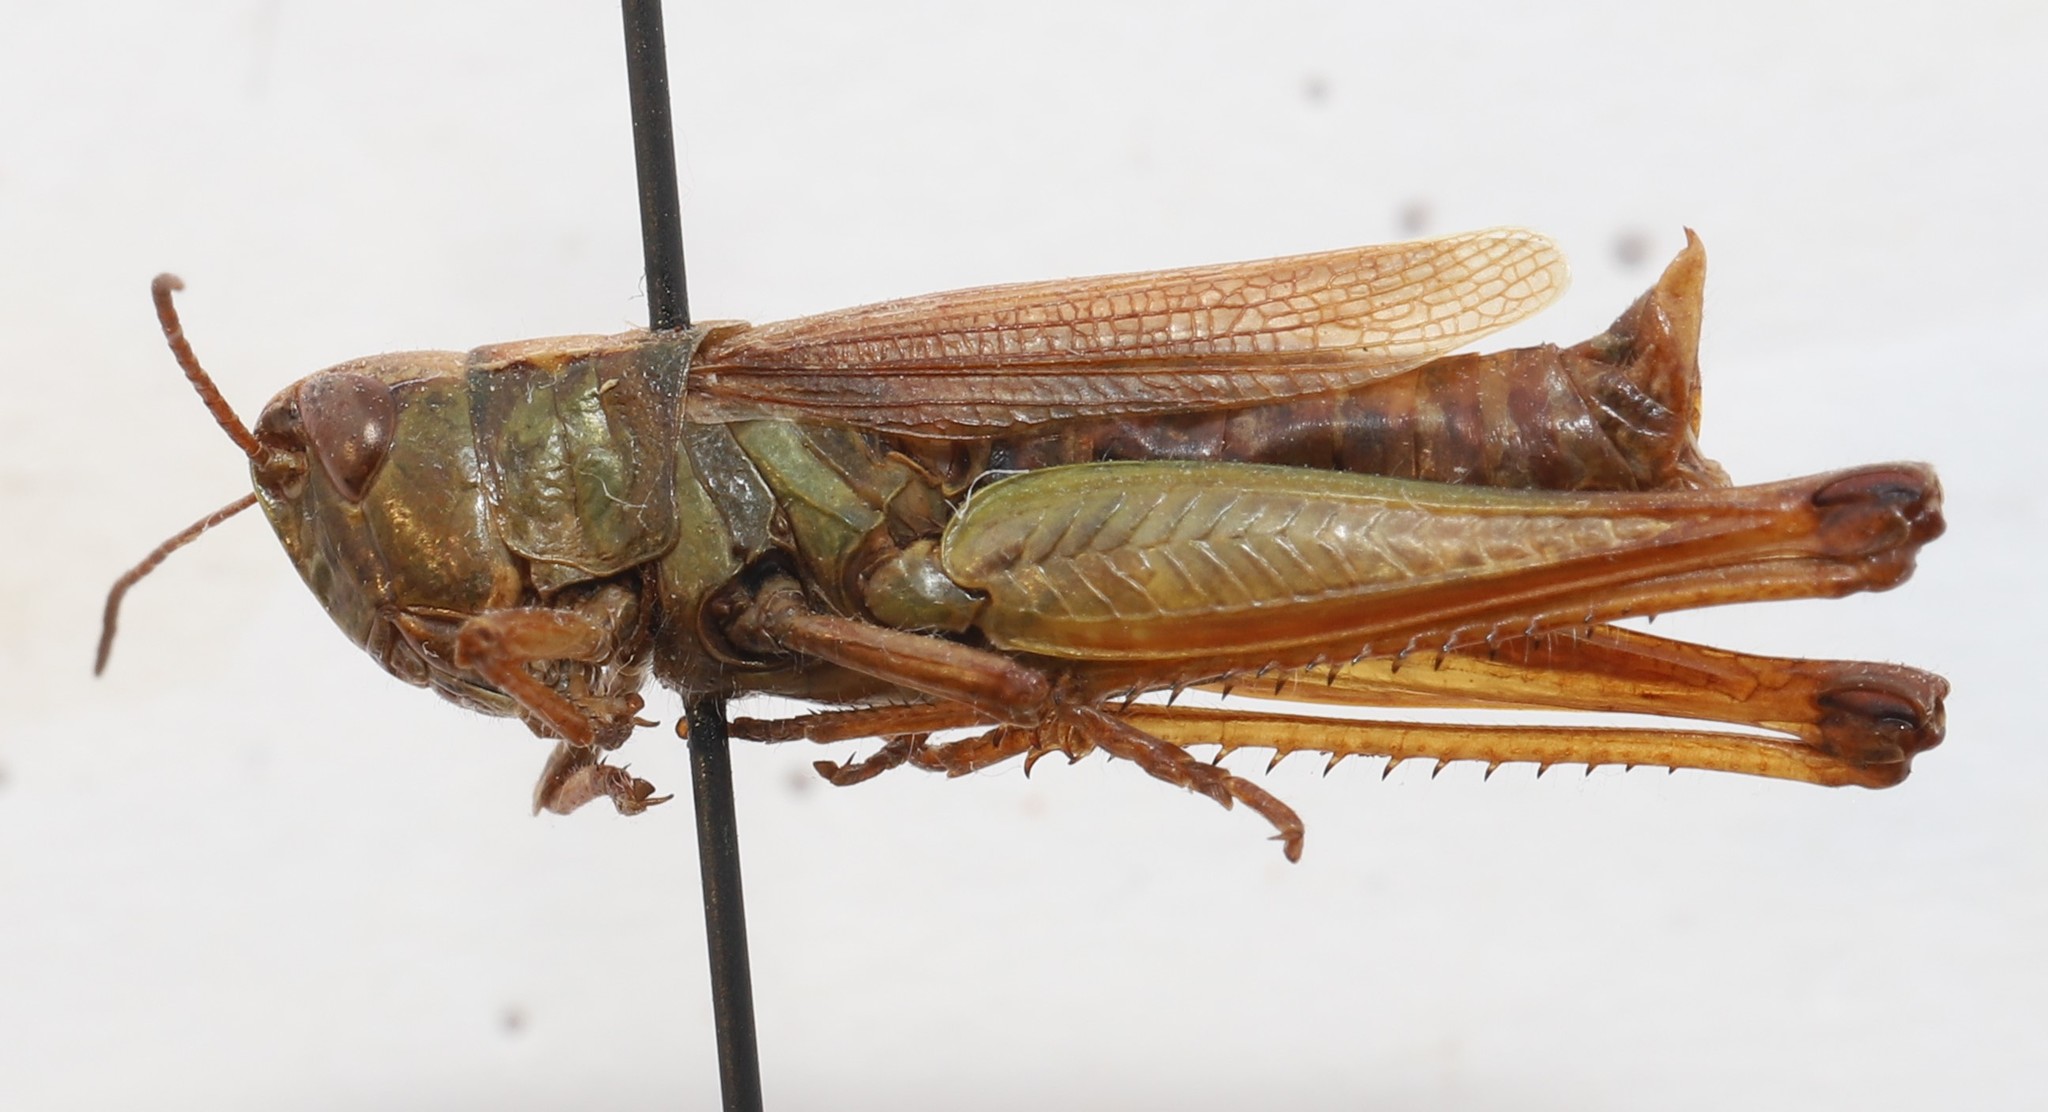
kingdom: Animalia
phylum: Arthropoda
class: Insecta
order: Orthoptera
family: Acrididae
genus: Stethophyma
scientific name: Stethophyma gracile
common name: Graceful sedge grasshopper
